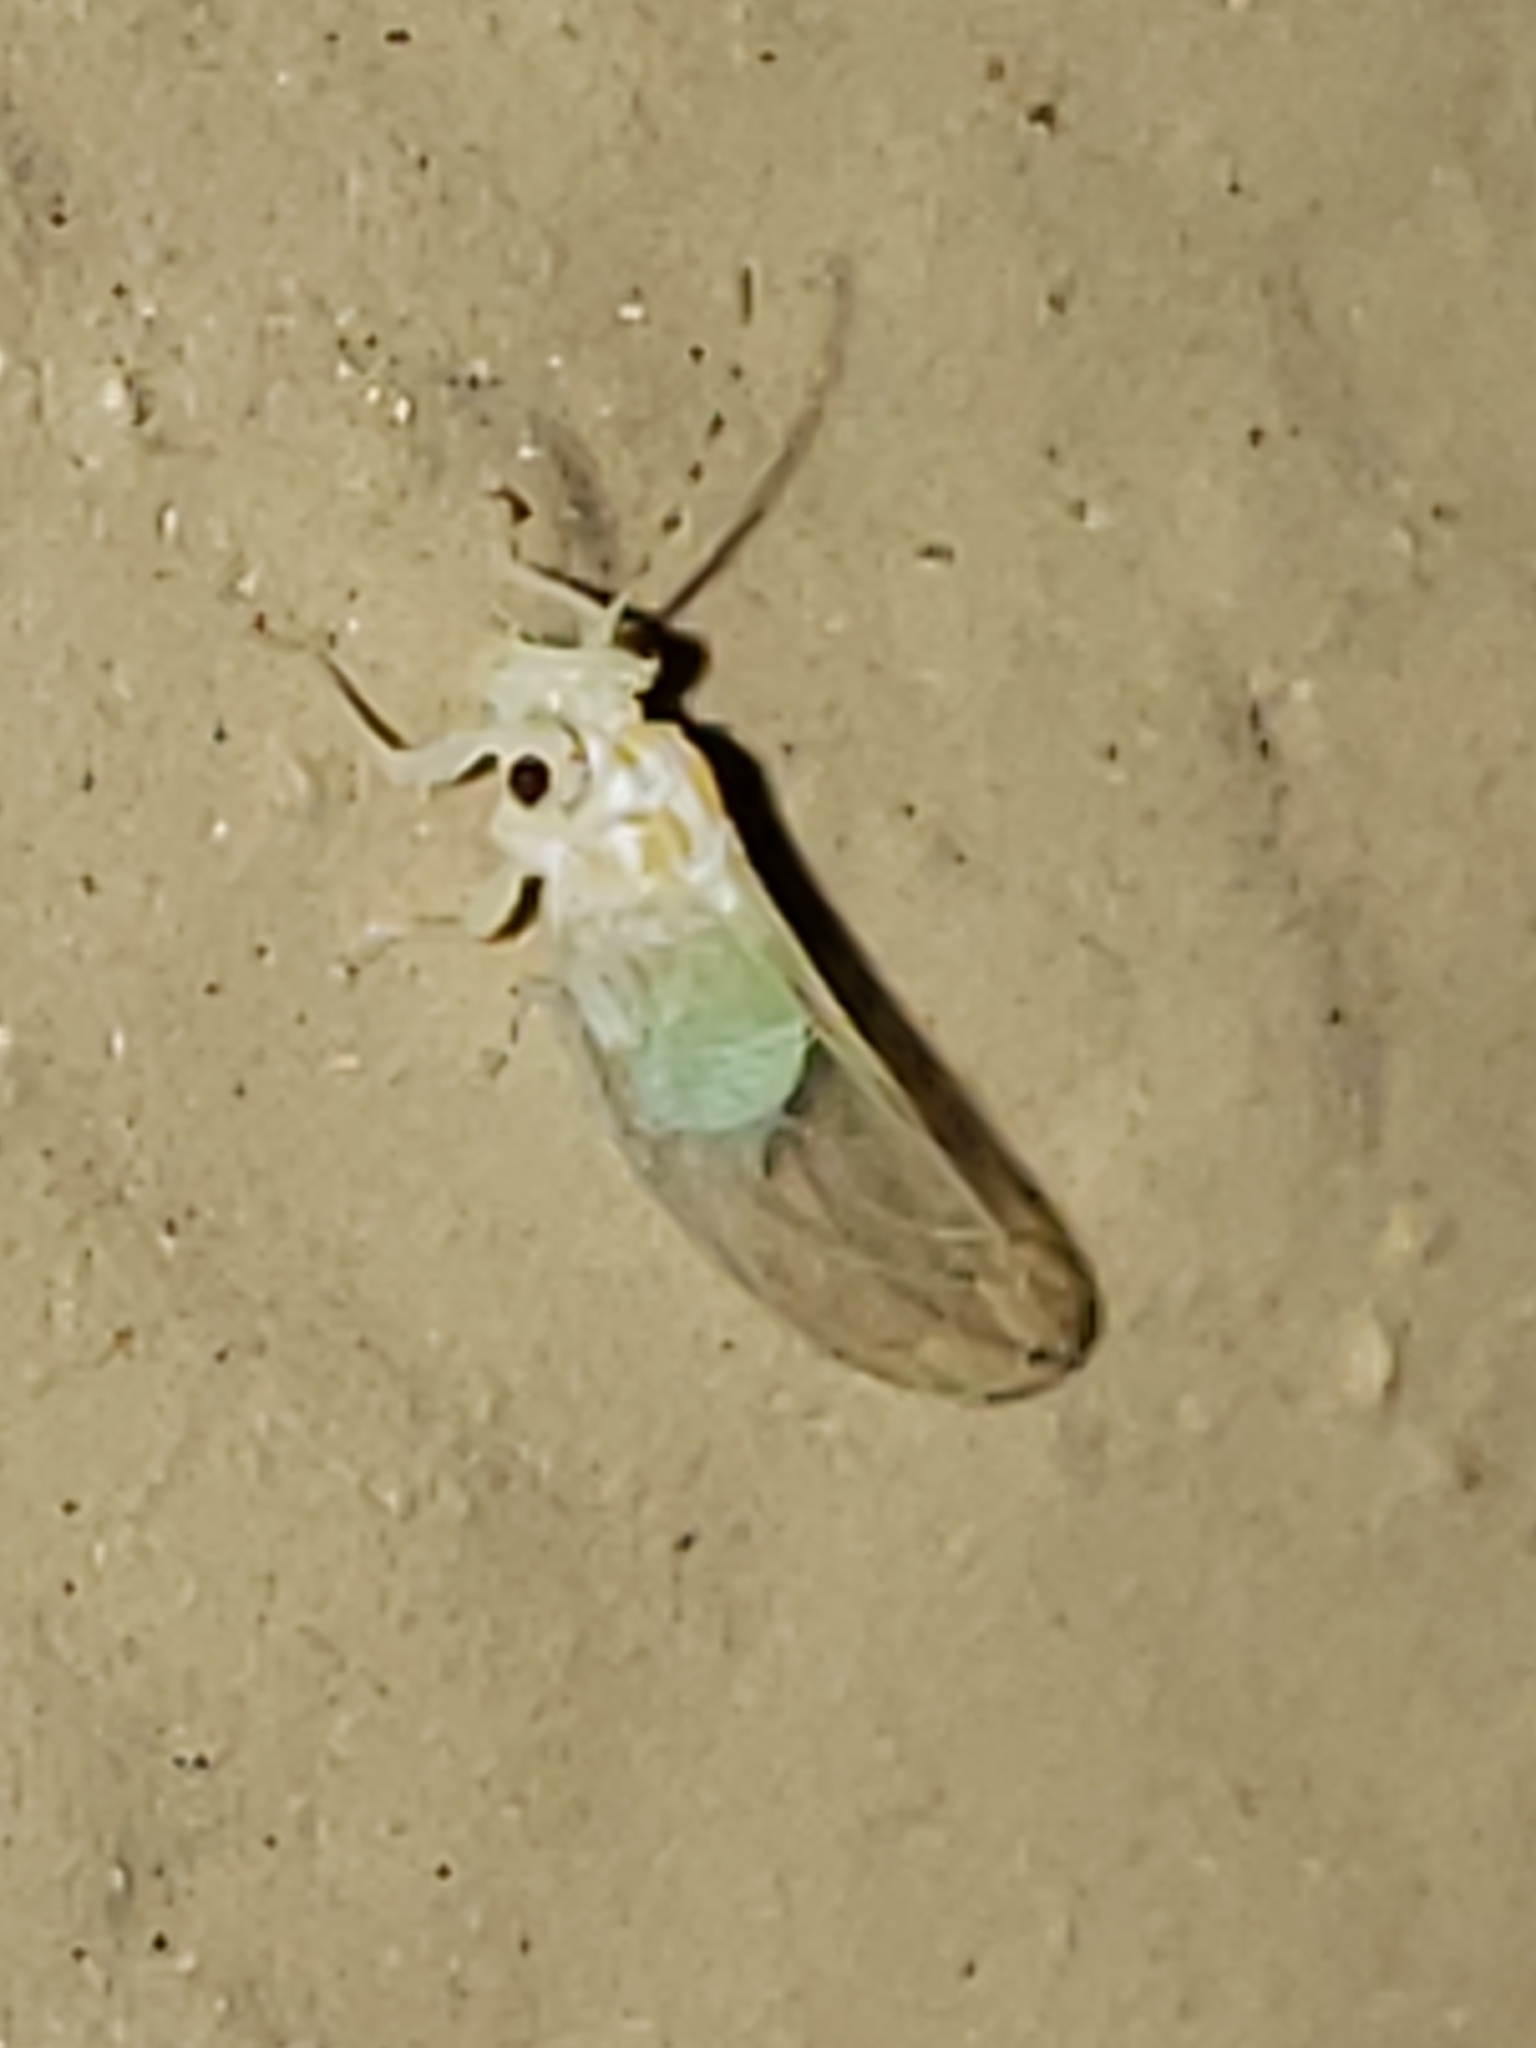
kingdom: Animalia
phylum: Arthropoda
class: Insecta
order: Hemiptera
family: Psyllidae
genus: Cacopsylla
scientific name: Cacopsylla annulata
